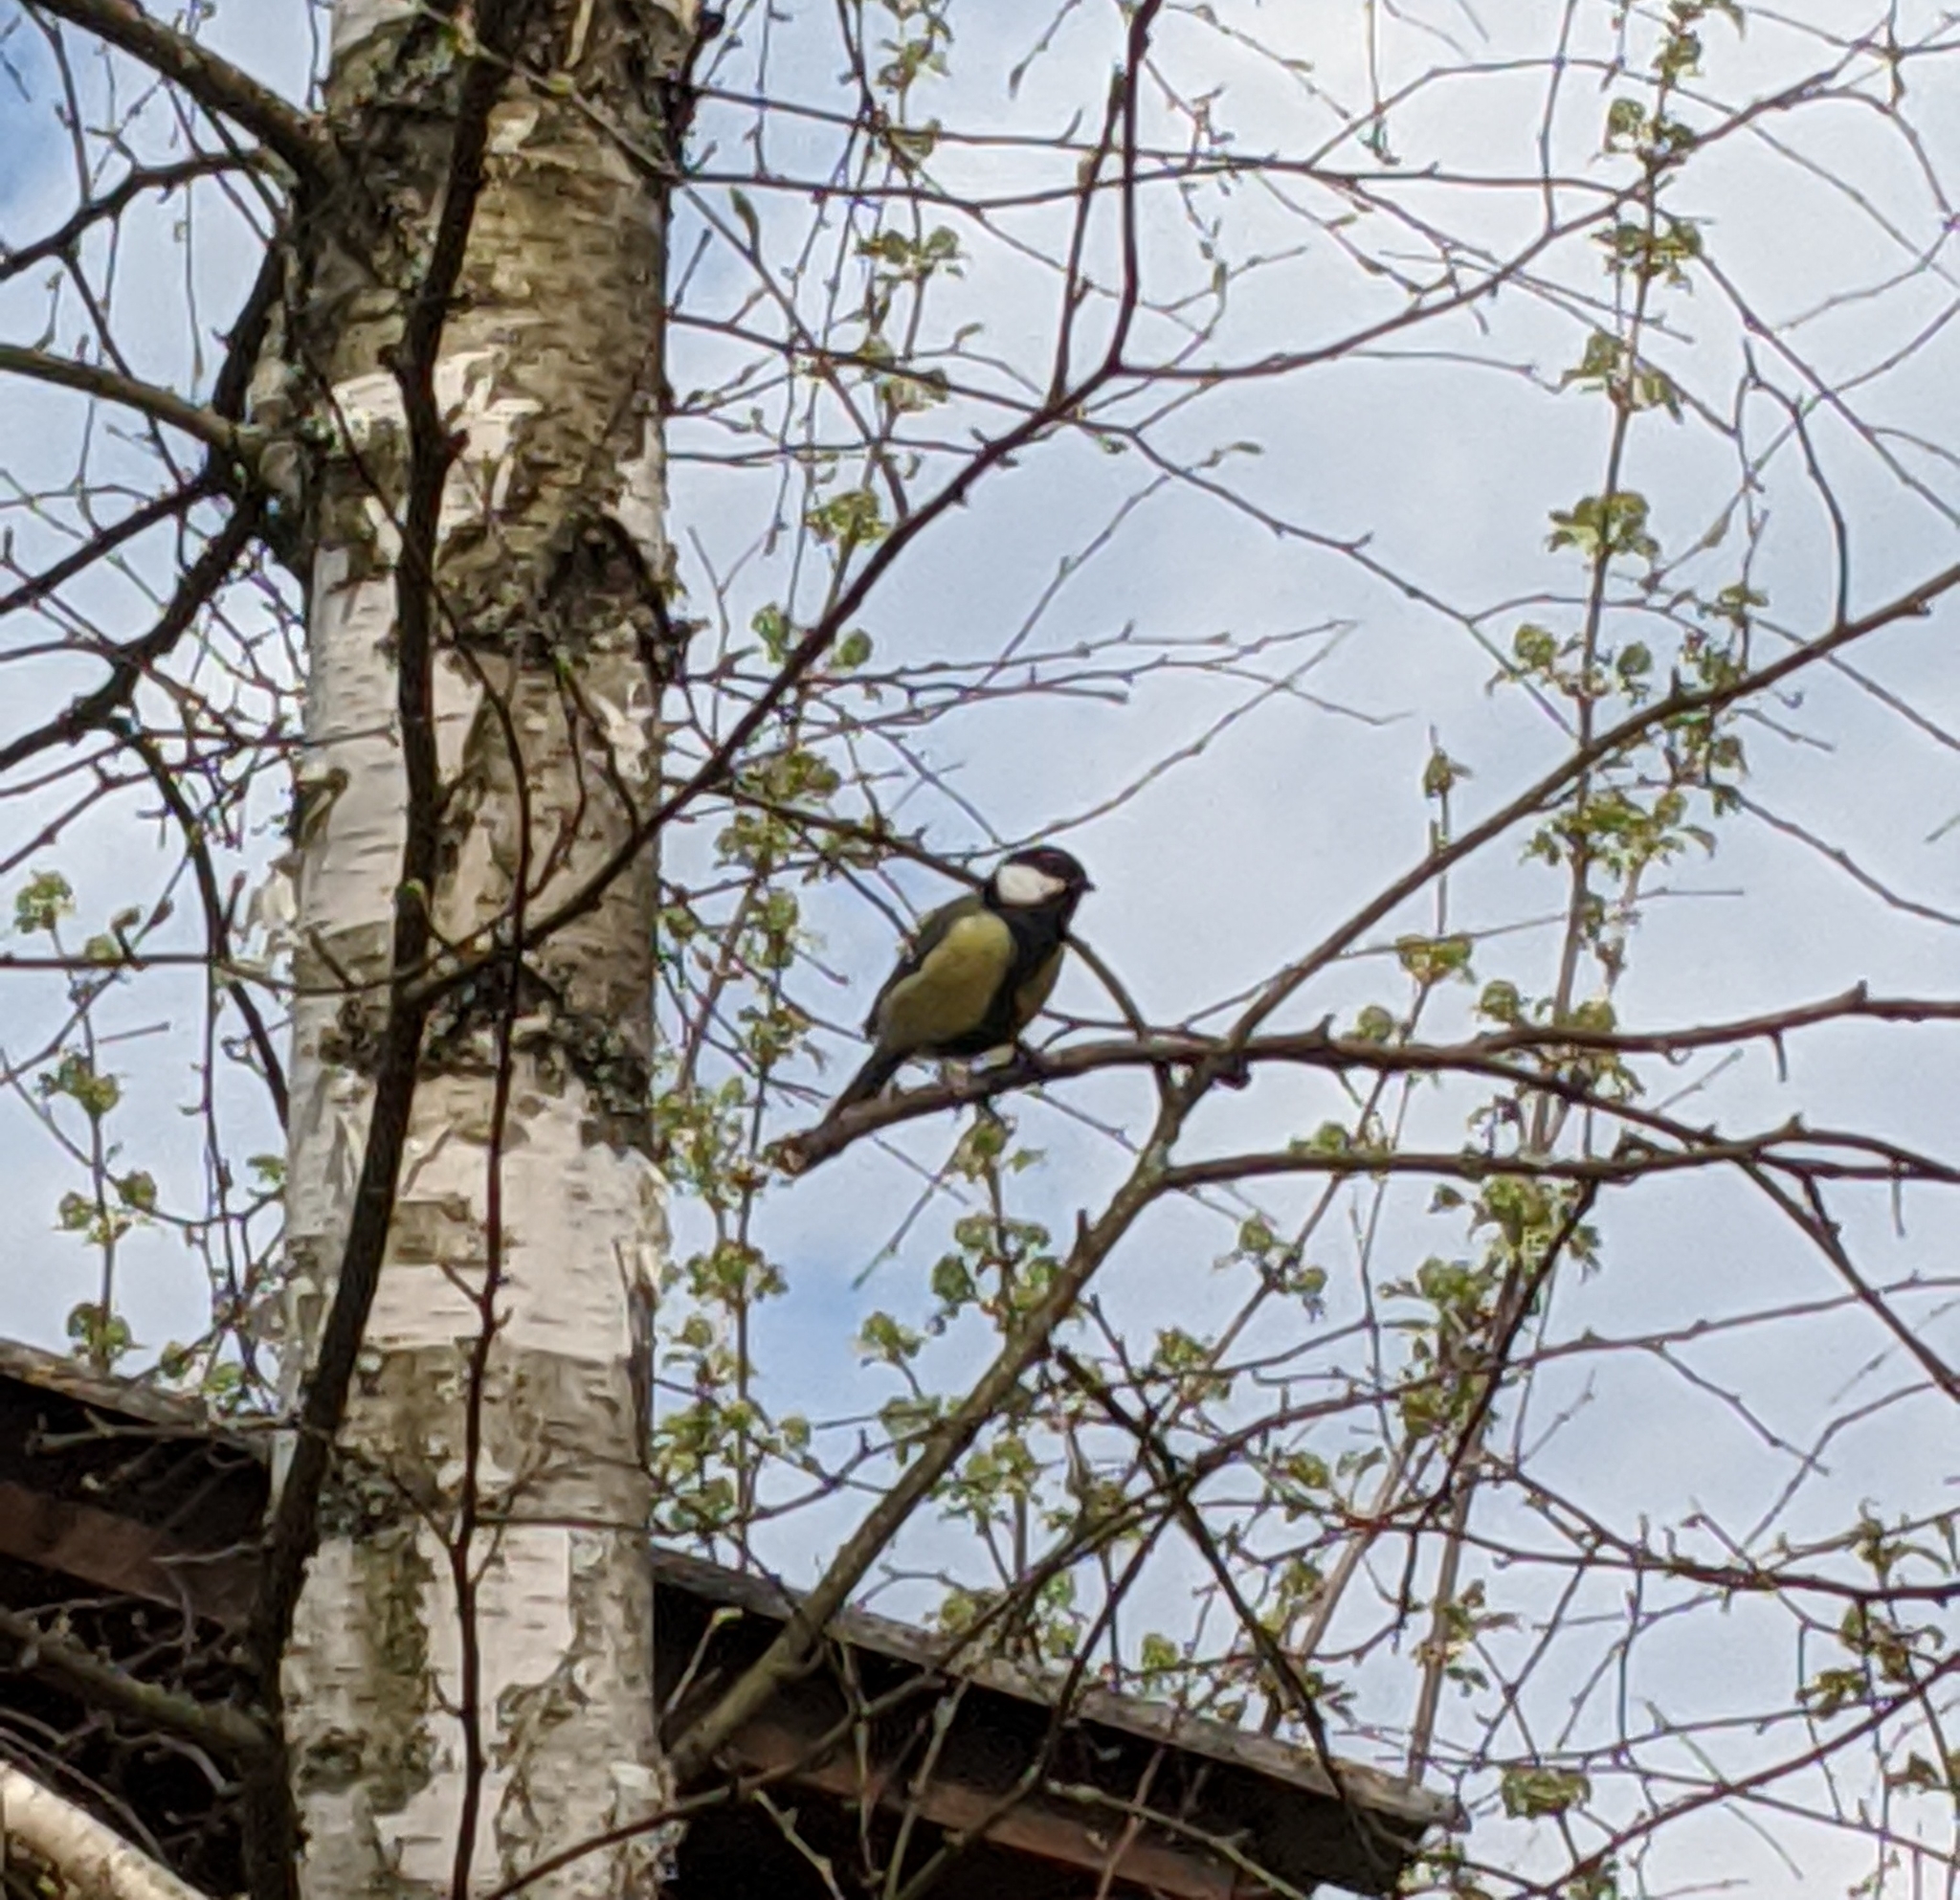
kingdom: Animalia
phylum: Chordata
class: Aves
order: Passeriformes
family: Paridae
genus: Parus
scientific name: Parus major
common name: Great tit
